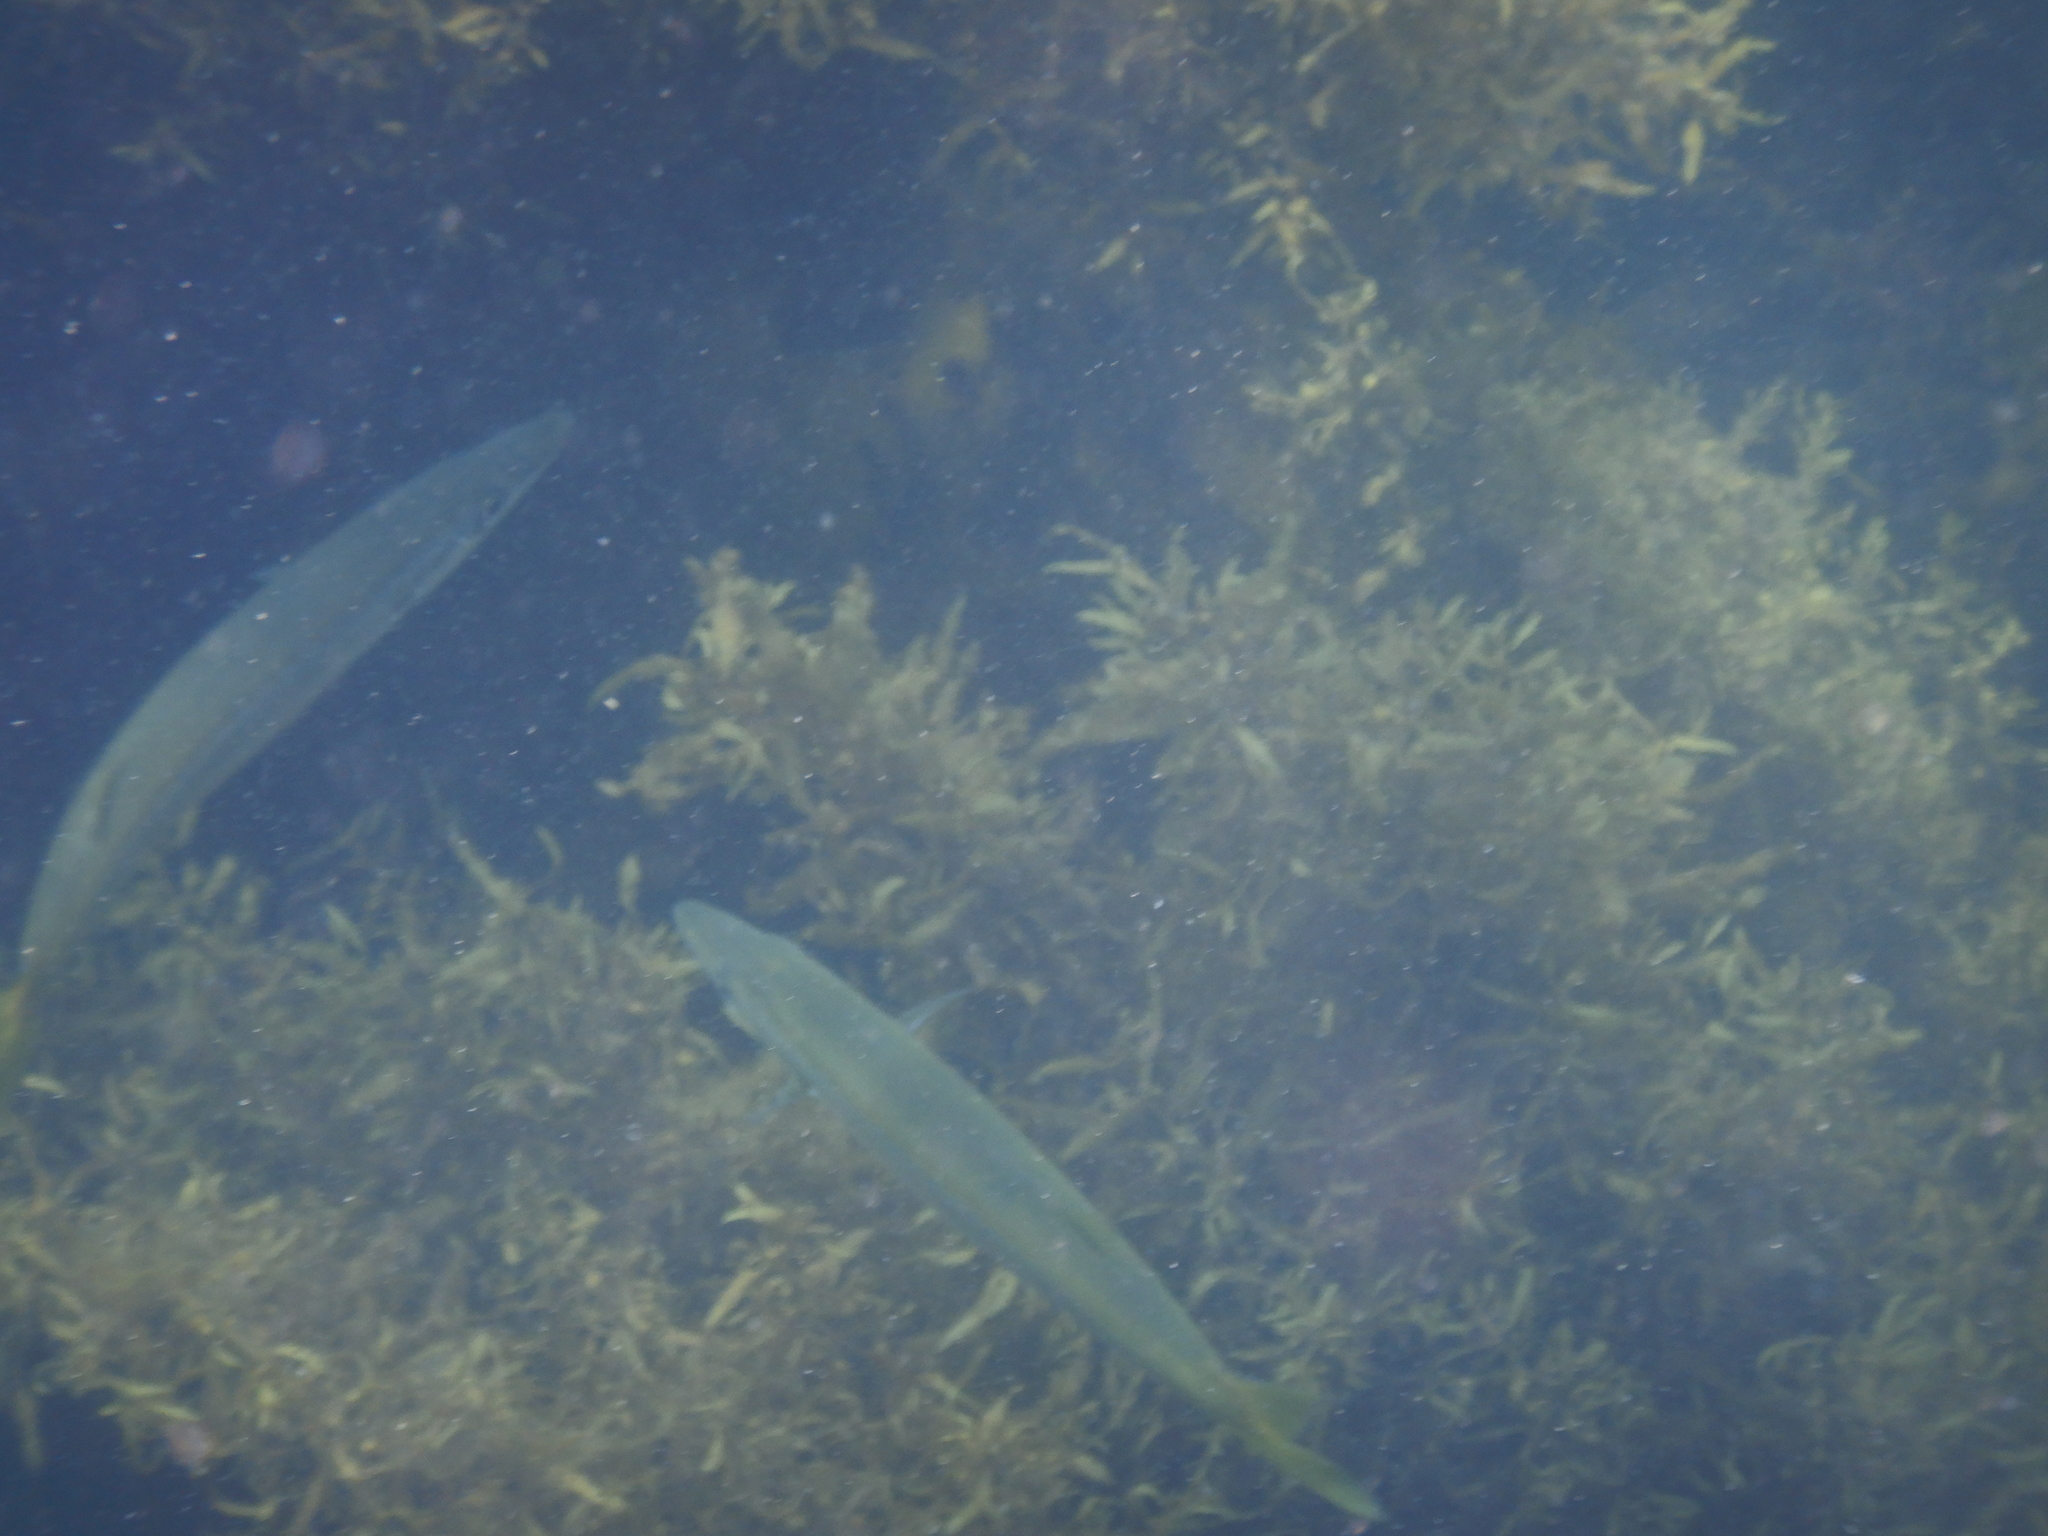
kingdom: Animalia
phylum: Chordata
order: Perciformes
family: Dinolestidae
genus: Dinolestes
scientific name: Dinolestes lewini
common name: Jack pike
